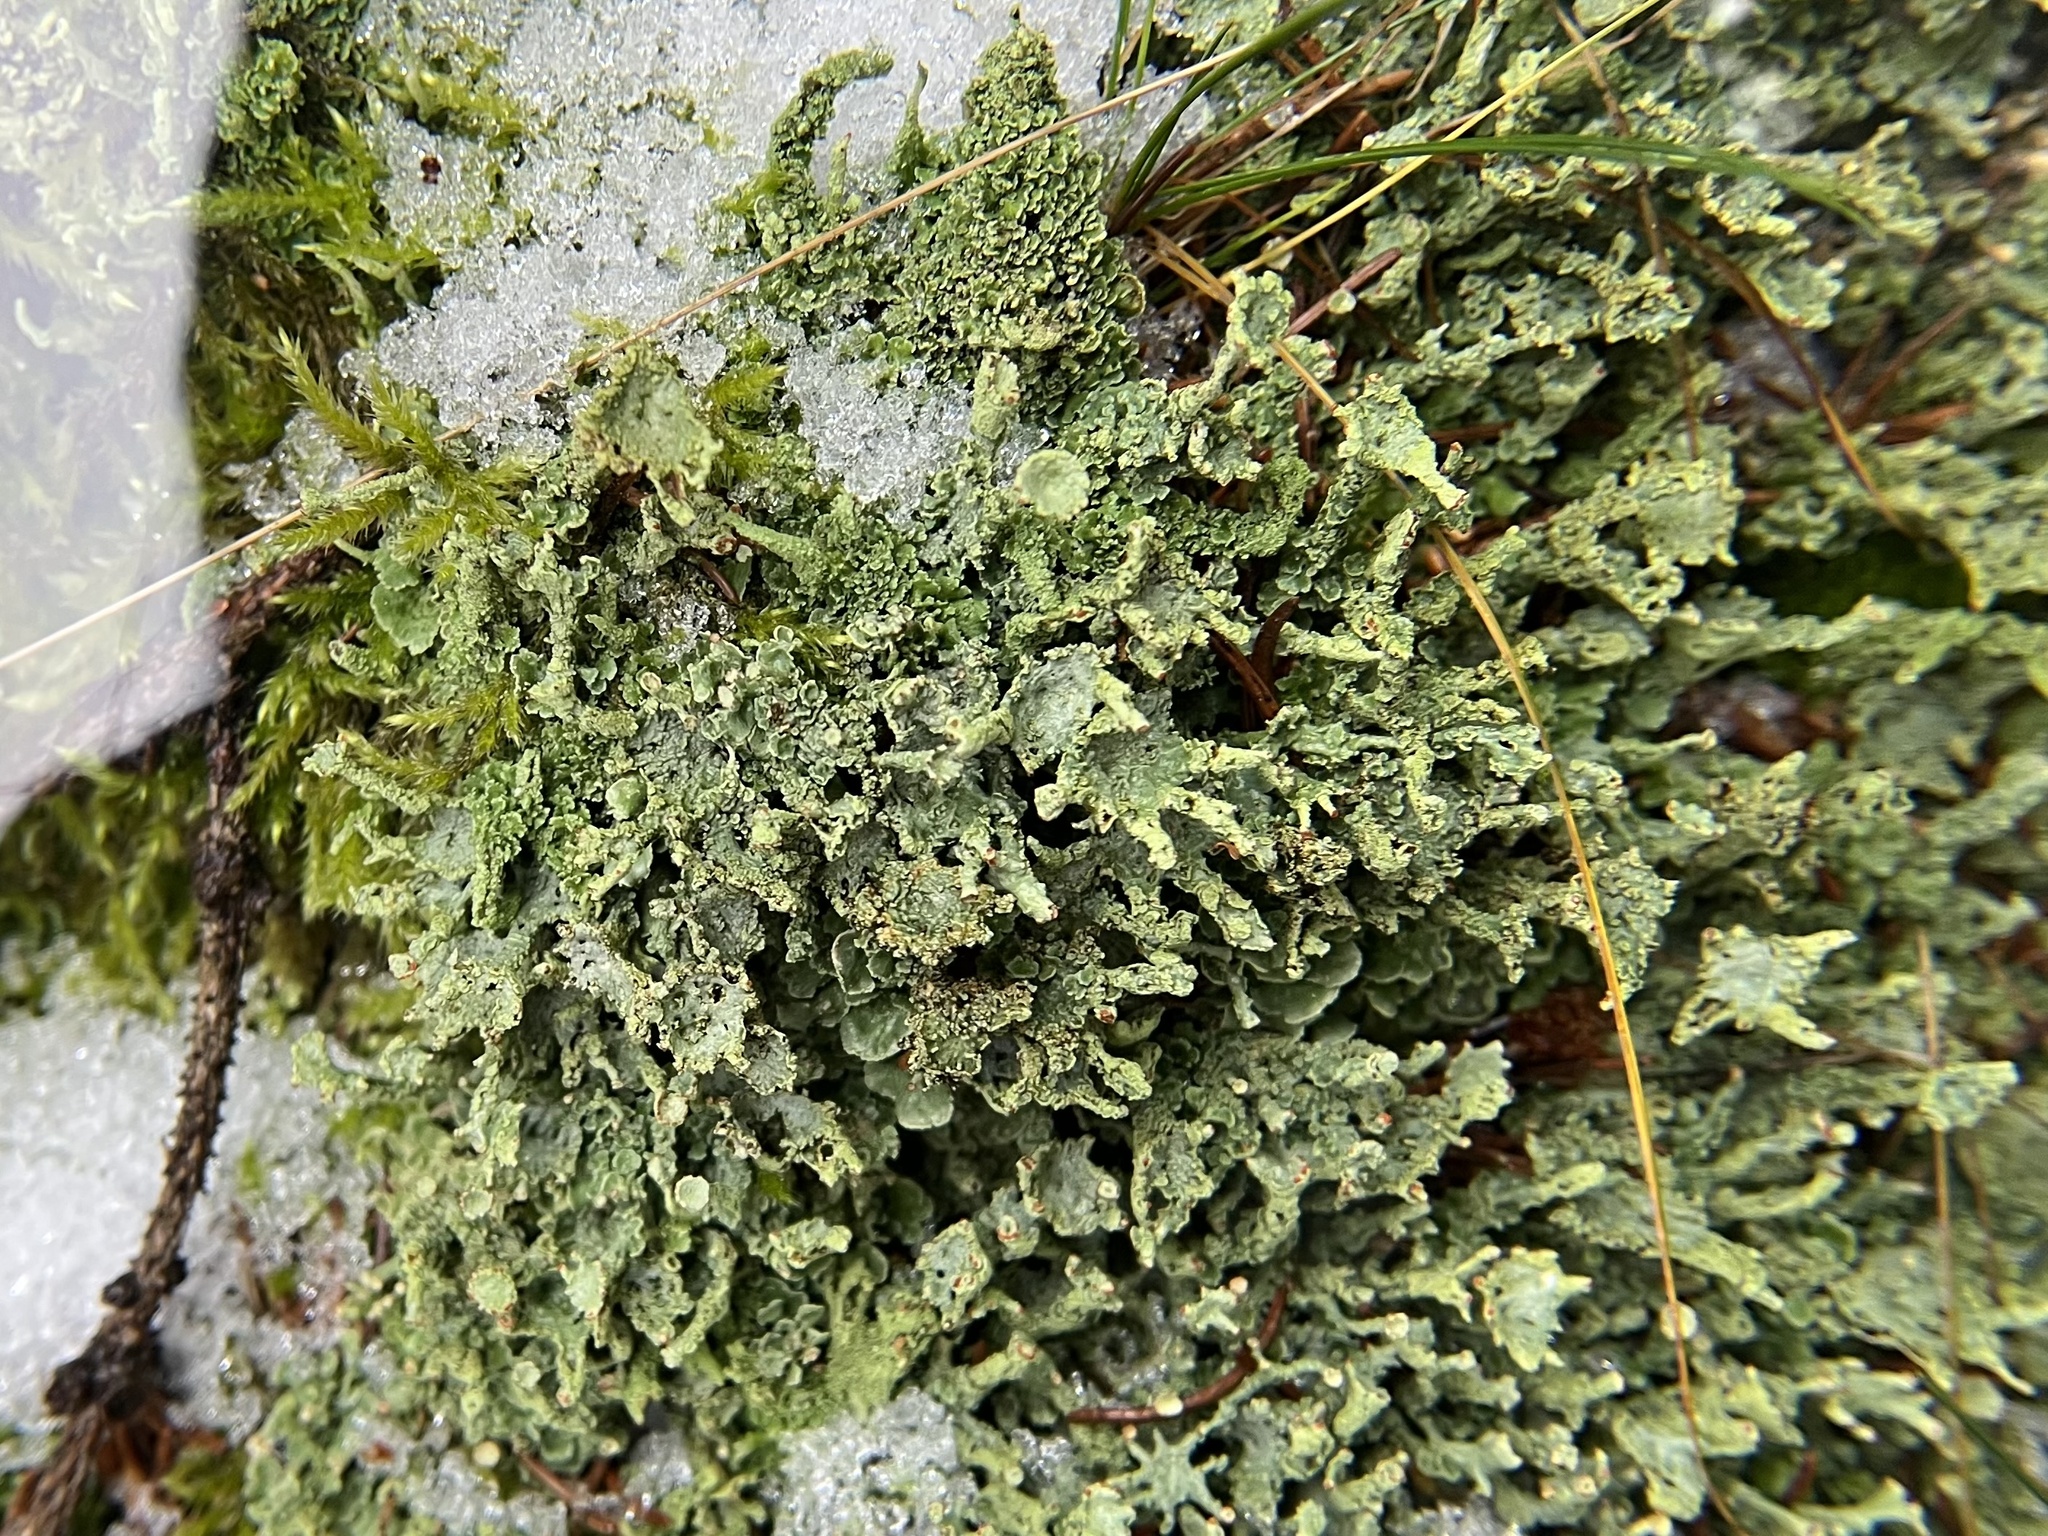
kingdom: Fungi
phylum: Ascomycota
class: Lecanoromycetes
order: Lecanorales
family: Cladoniaceae
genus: Cladonia
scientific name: Cladonia digitata
